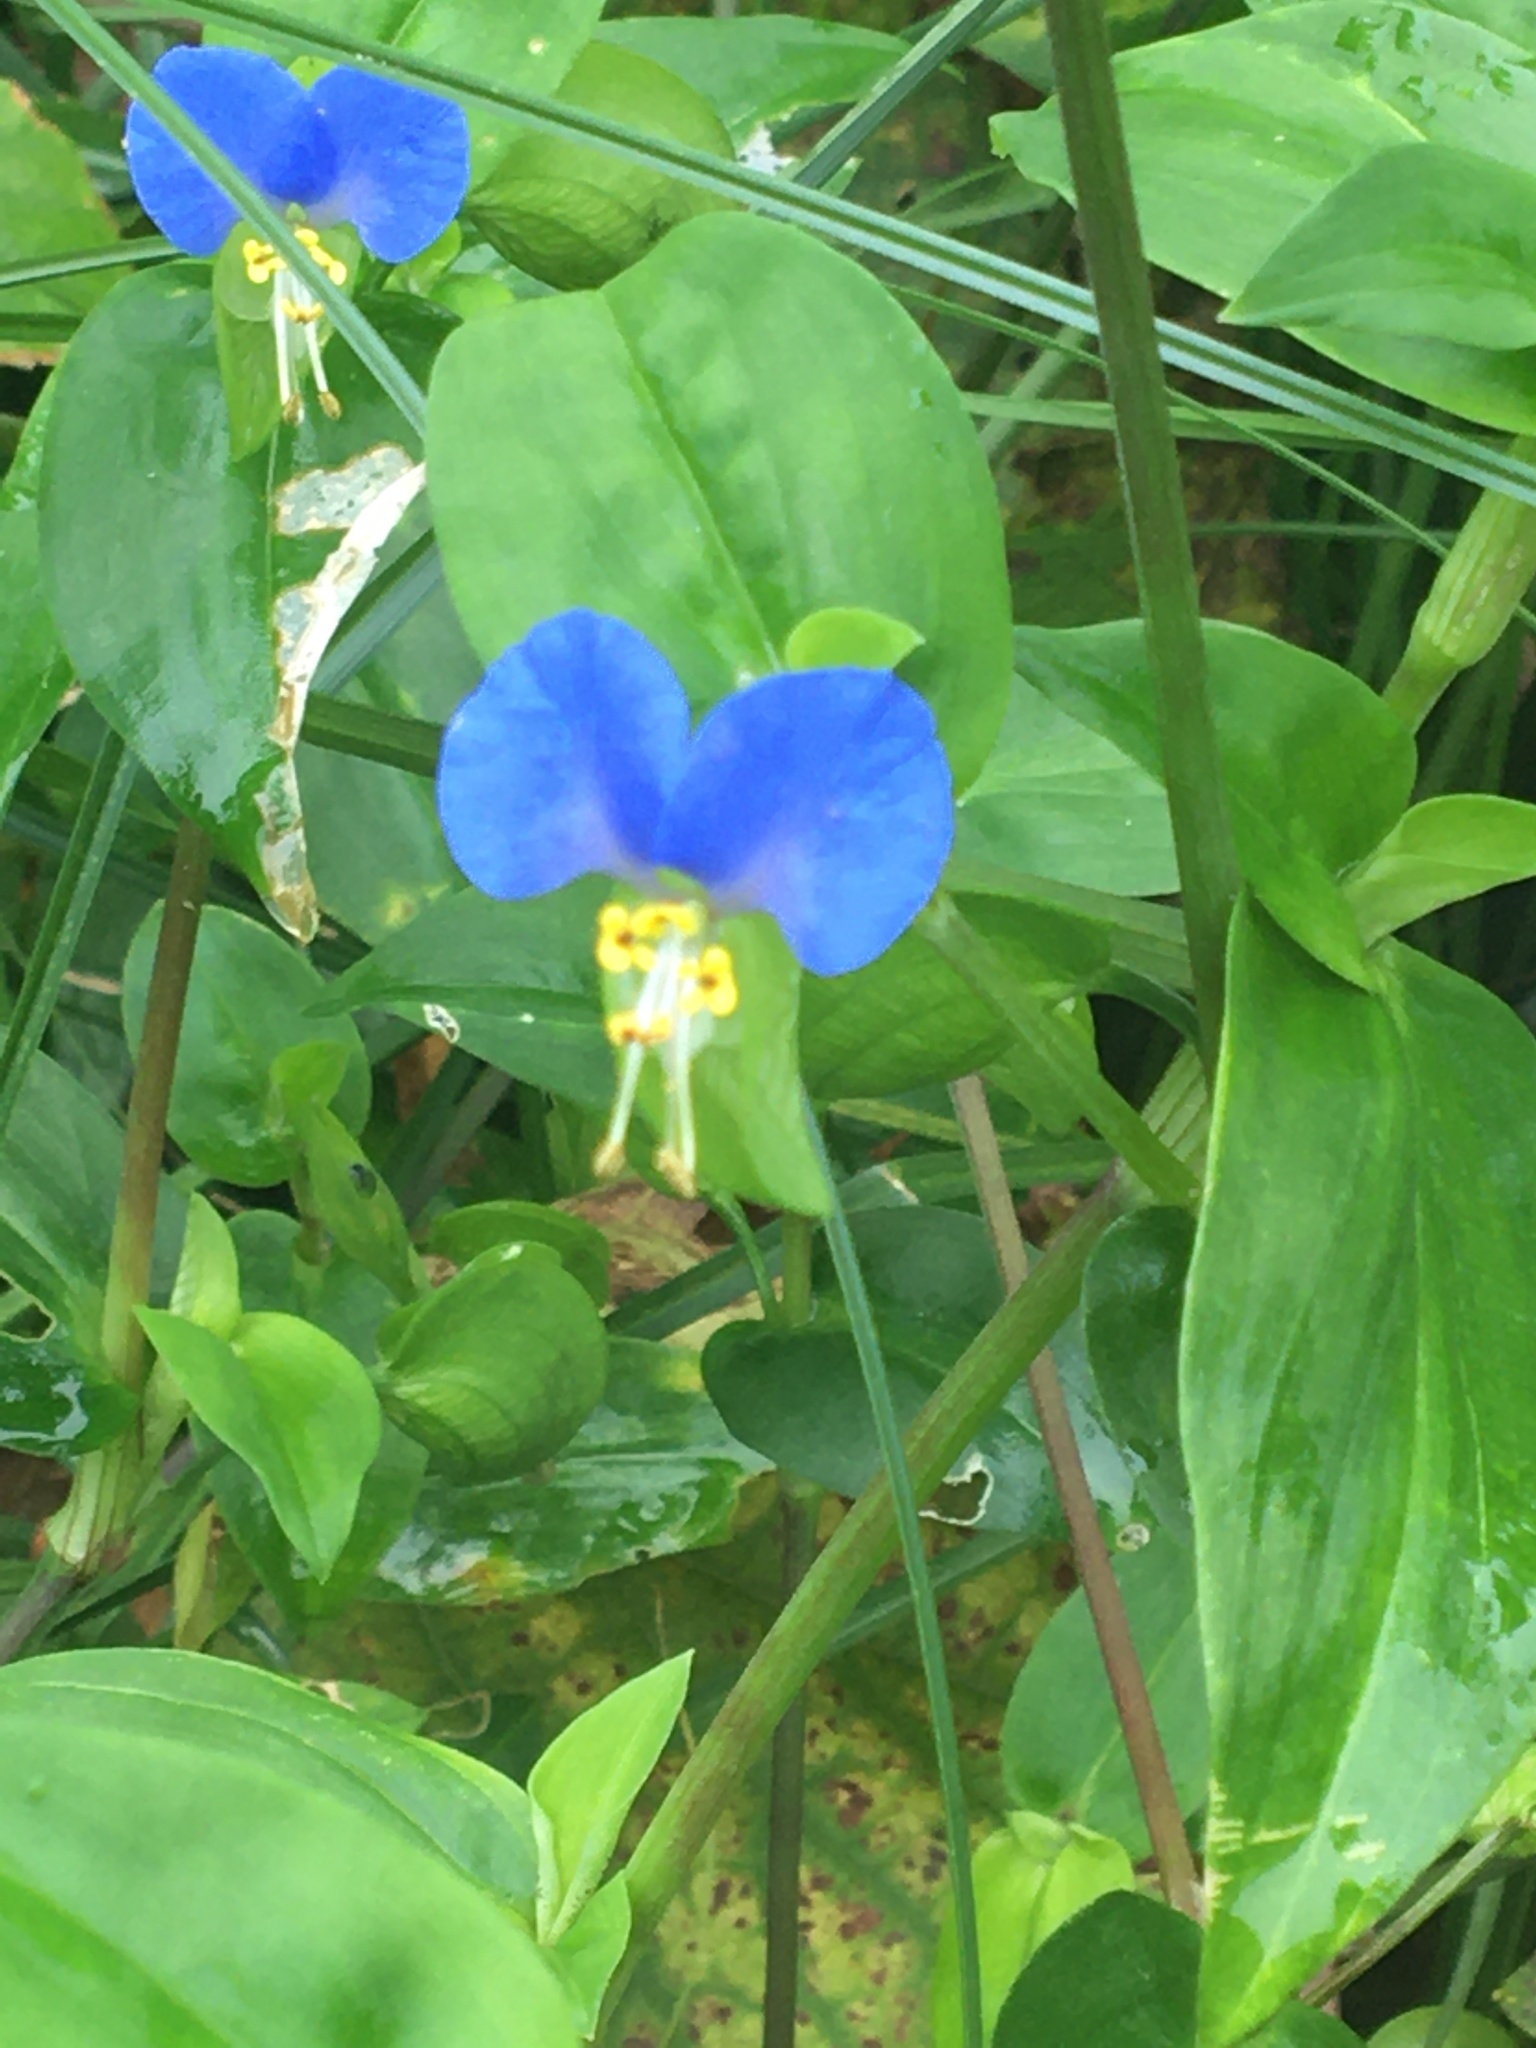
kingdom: Plantae
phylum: Tracheophyta
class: Liliopsida
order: Commelinales
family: Commelinaceae
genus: Commelina
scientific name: Commelina communis
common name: Asiatic dayflower
